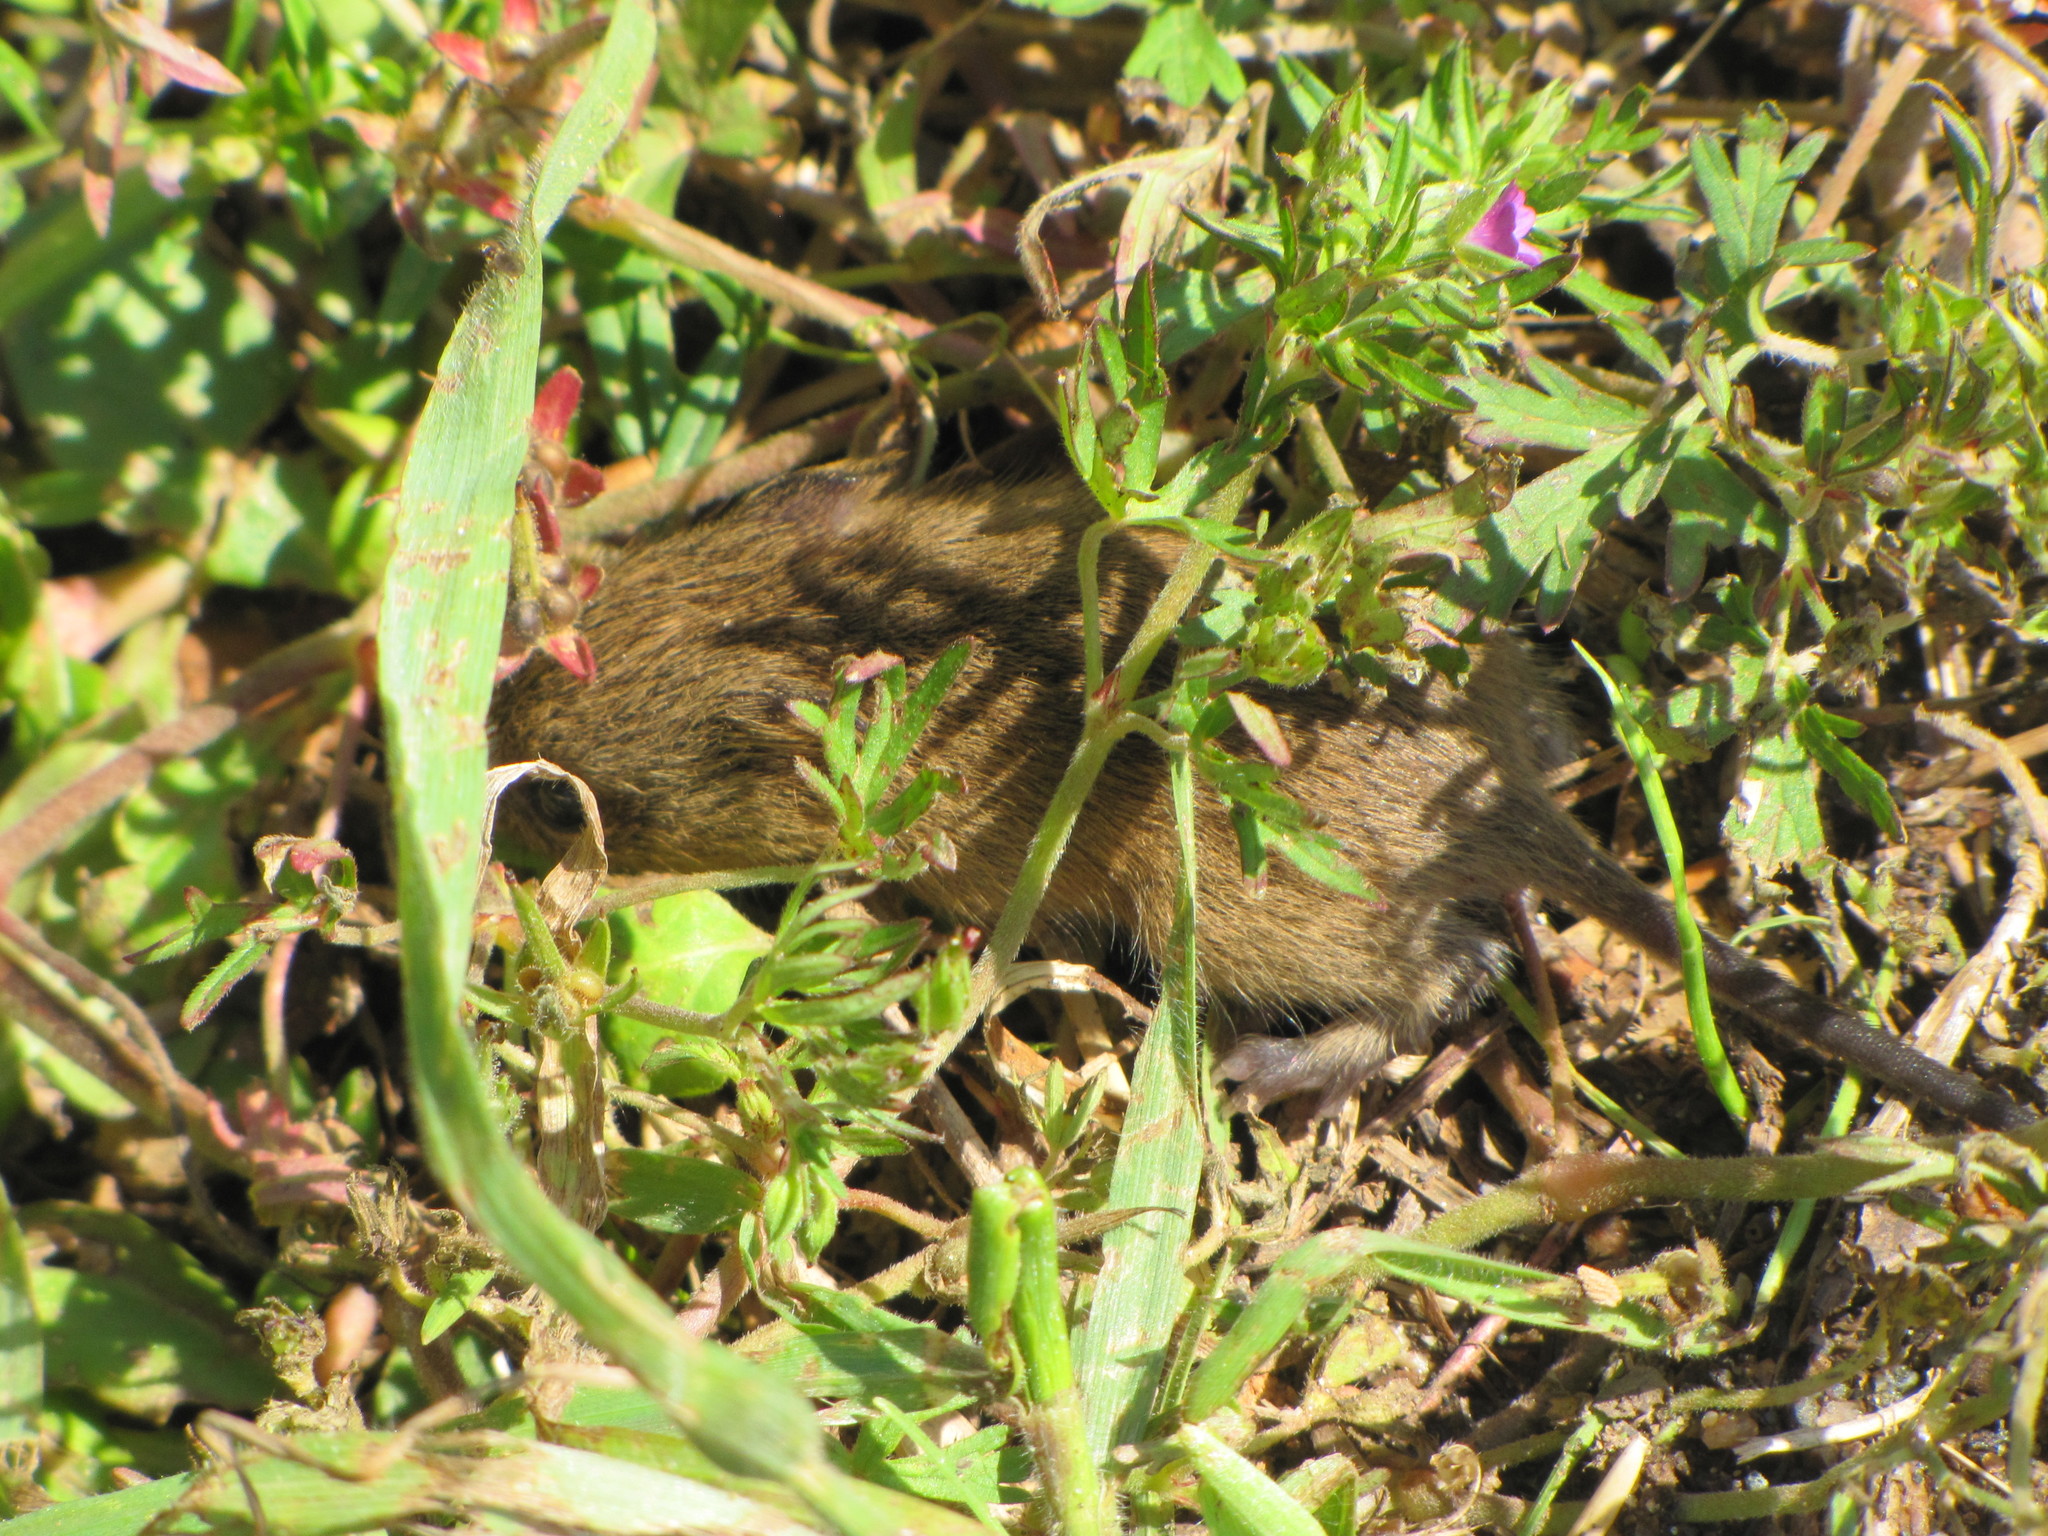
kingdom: Animalia
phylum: Chordata
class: Mammalia
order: Rodentia
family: Cricetidae
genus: Reithrodontomys
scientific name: Reithrodontomys humulis
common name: Eastern harvest mouse
